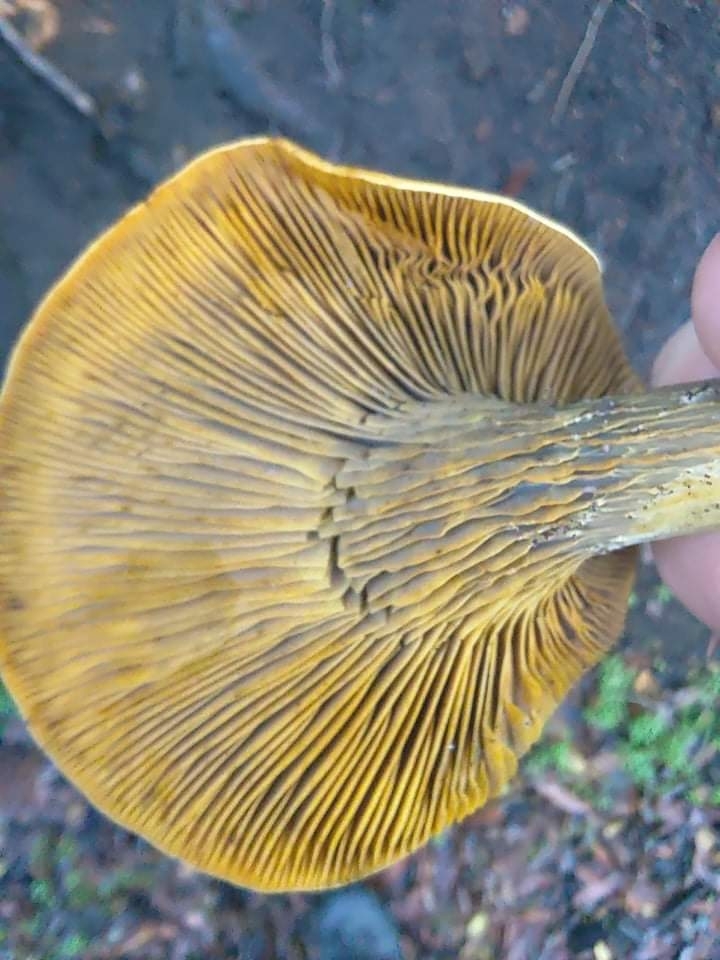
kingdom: Fungi
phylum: Basidiomycota
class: Agaricomycetes
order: Agaricales
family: Omphalotaceae
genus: Omphalotus
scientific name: Omphalotus olivascens
